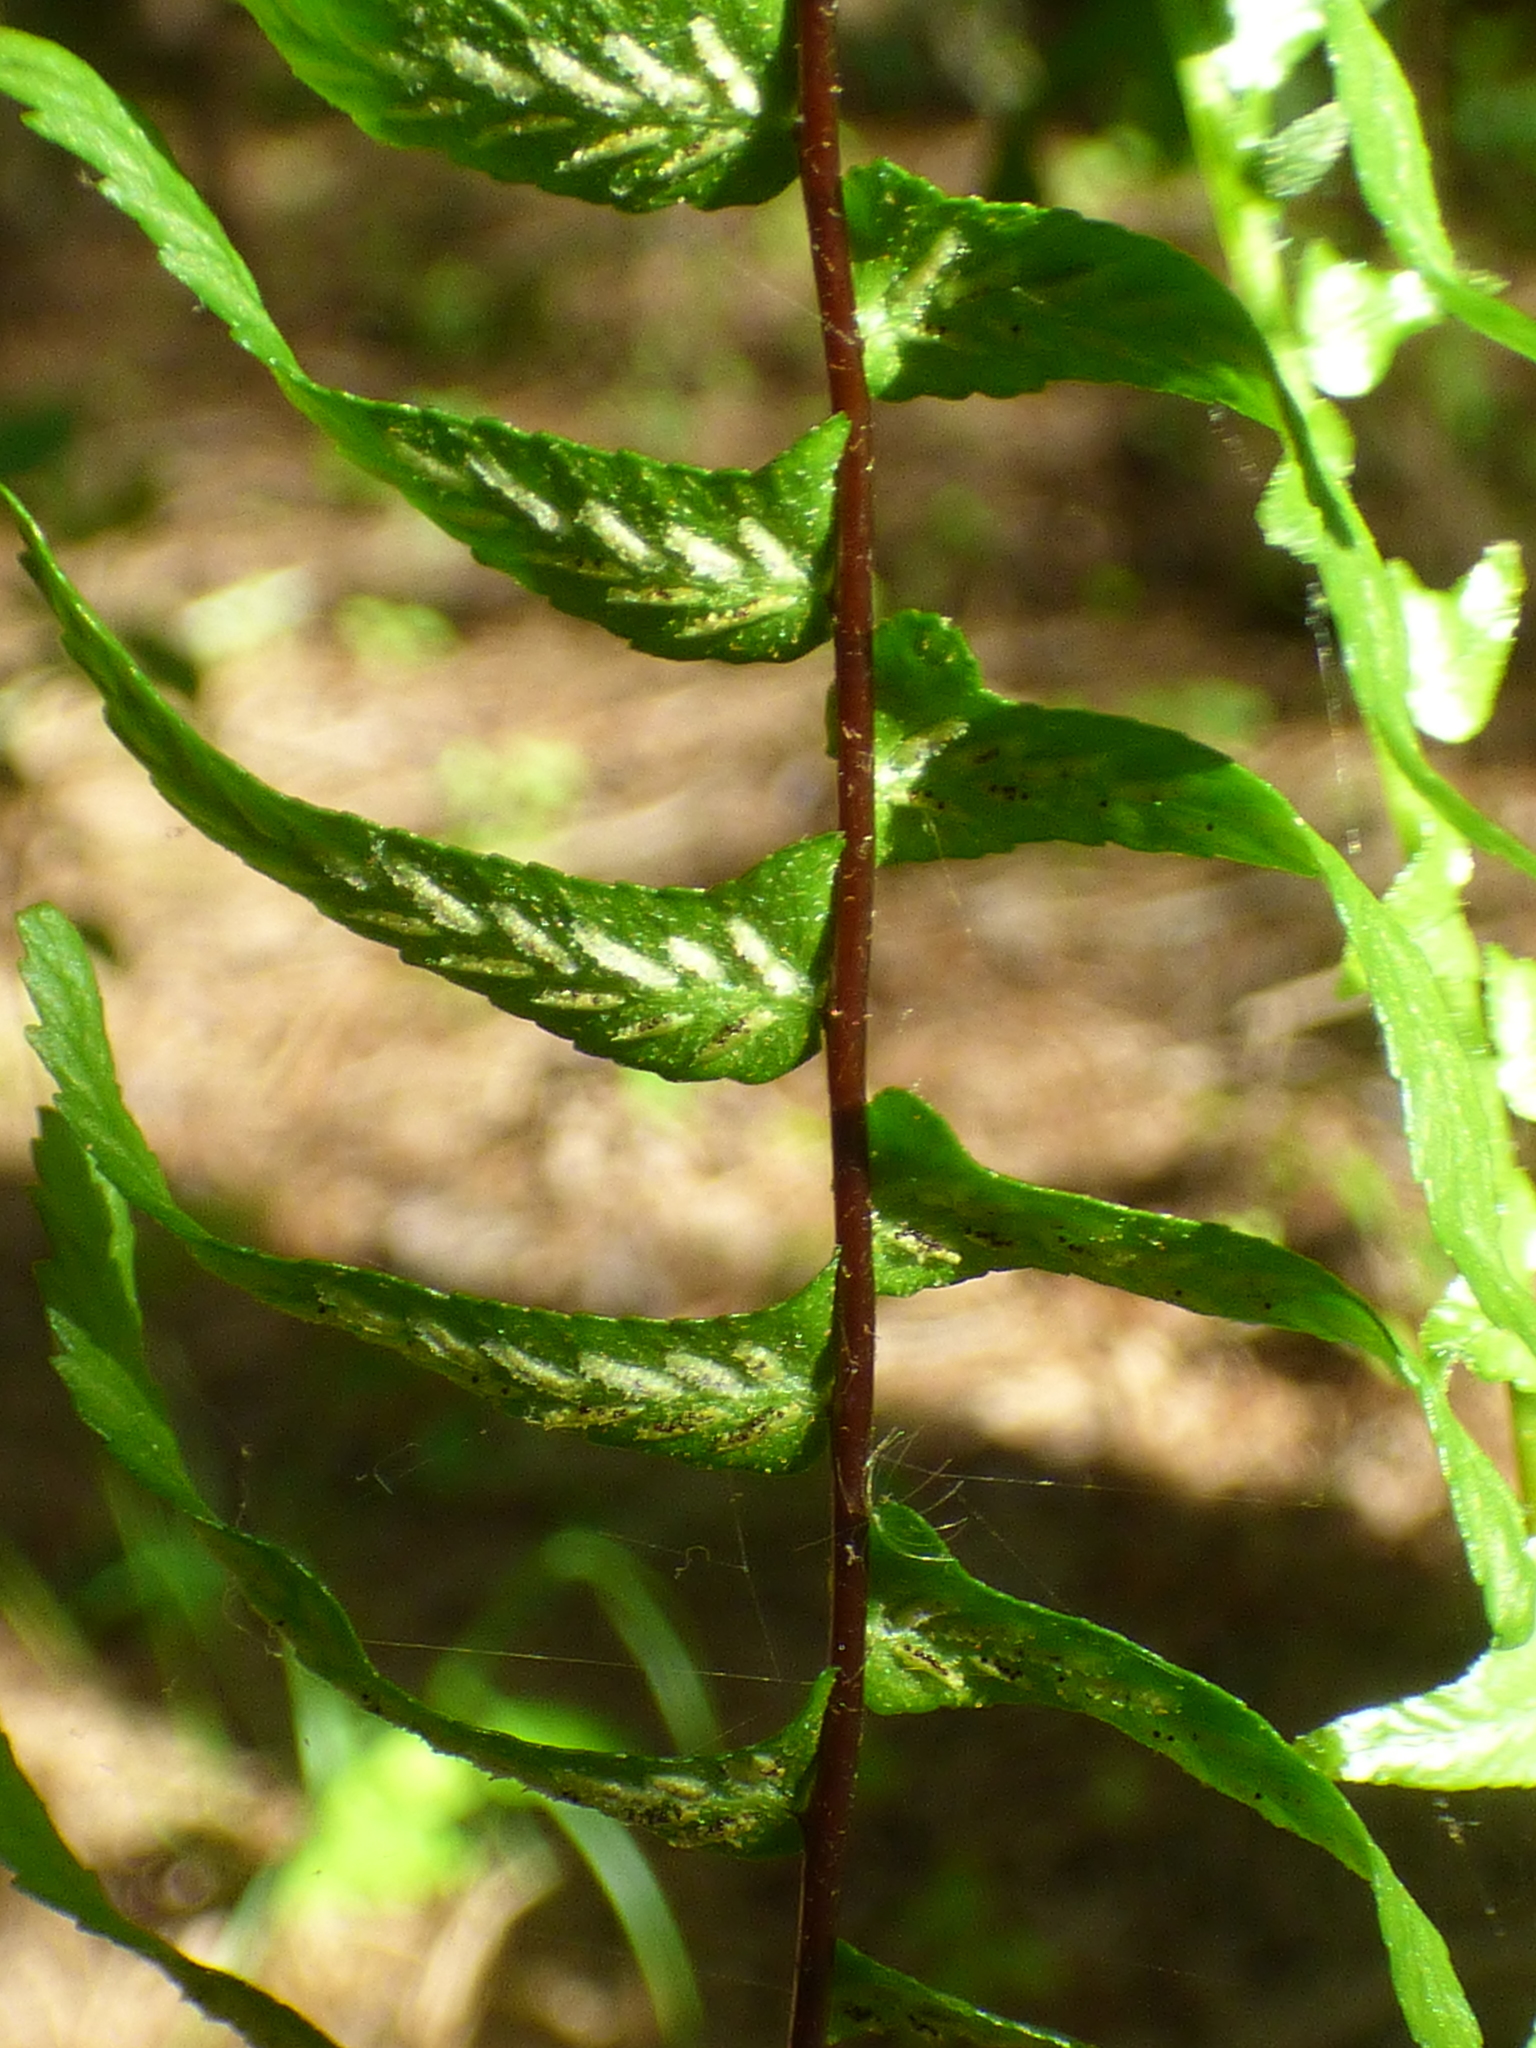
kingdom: Plantae
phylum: Tracheophyta
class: Polypodiopsida
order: Polypodiales
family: Aspleniaceae
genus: Asplenium
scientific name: Asplenium platyneuron
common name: Ebony spleenwort
